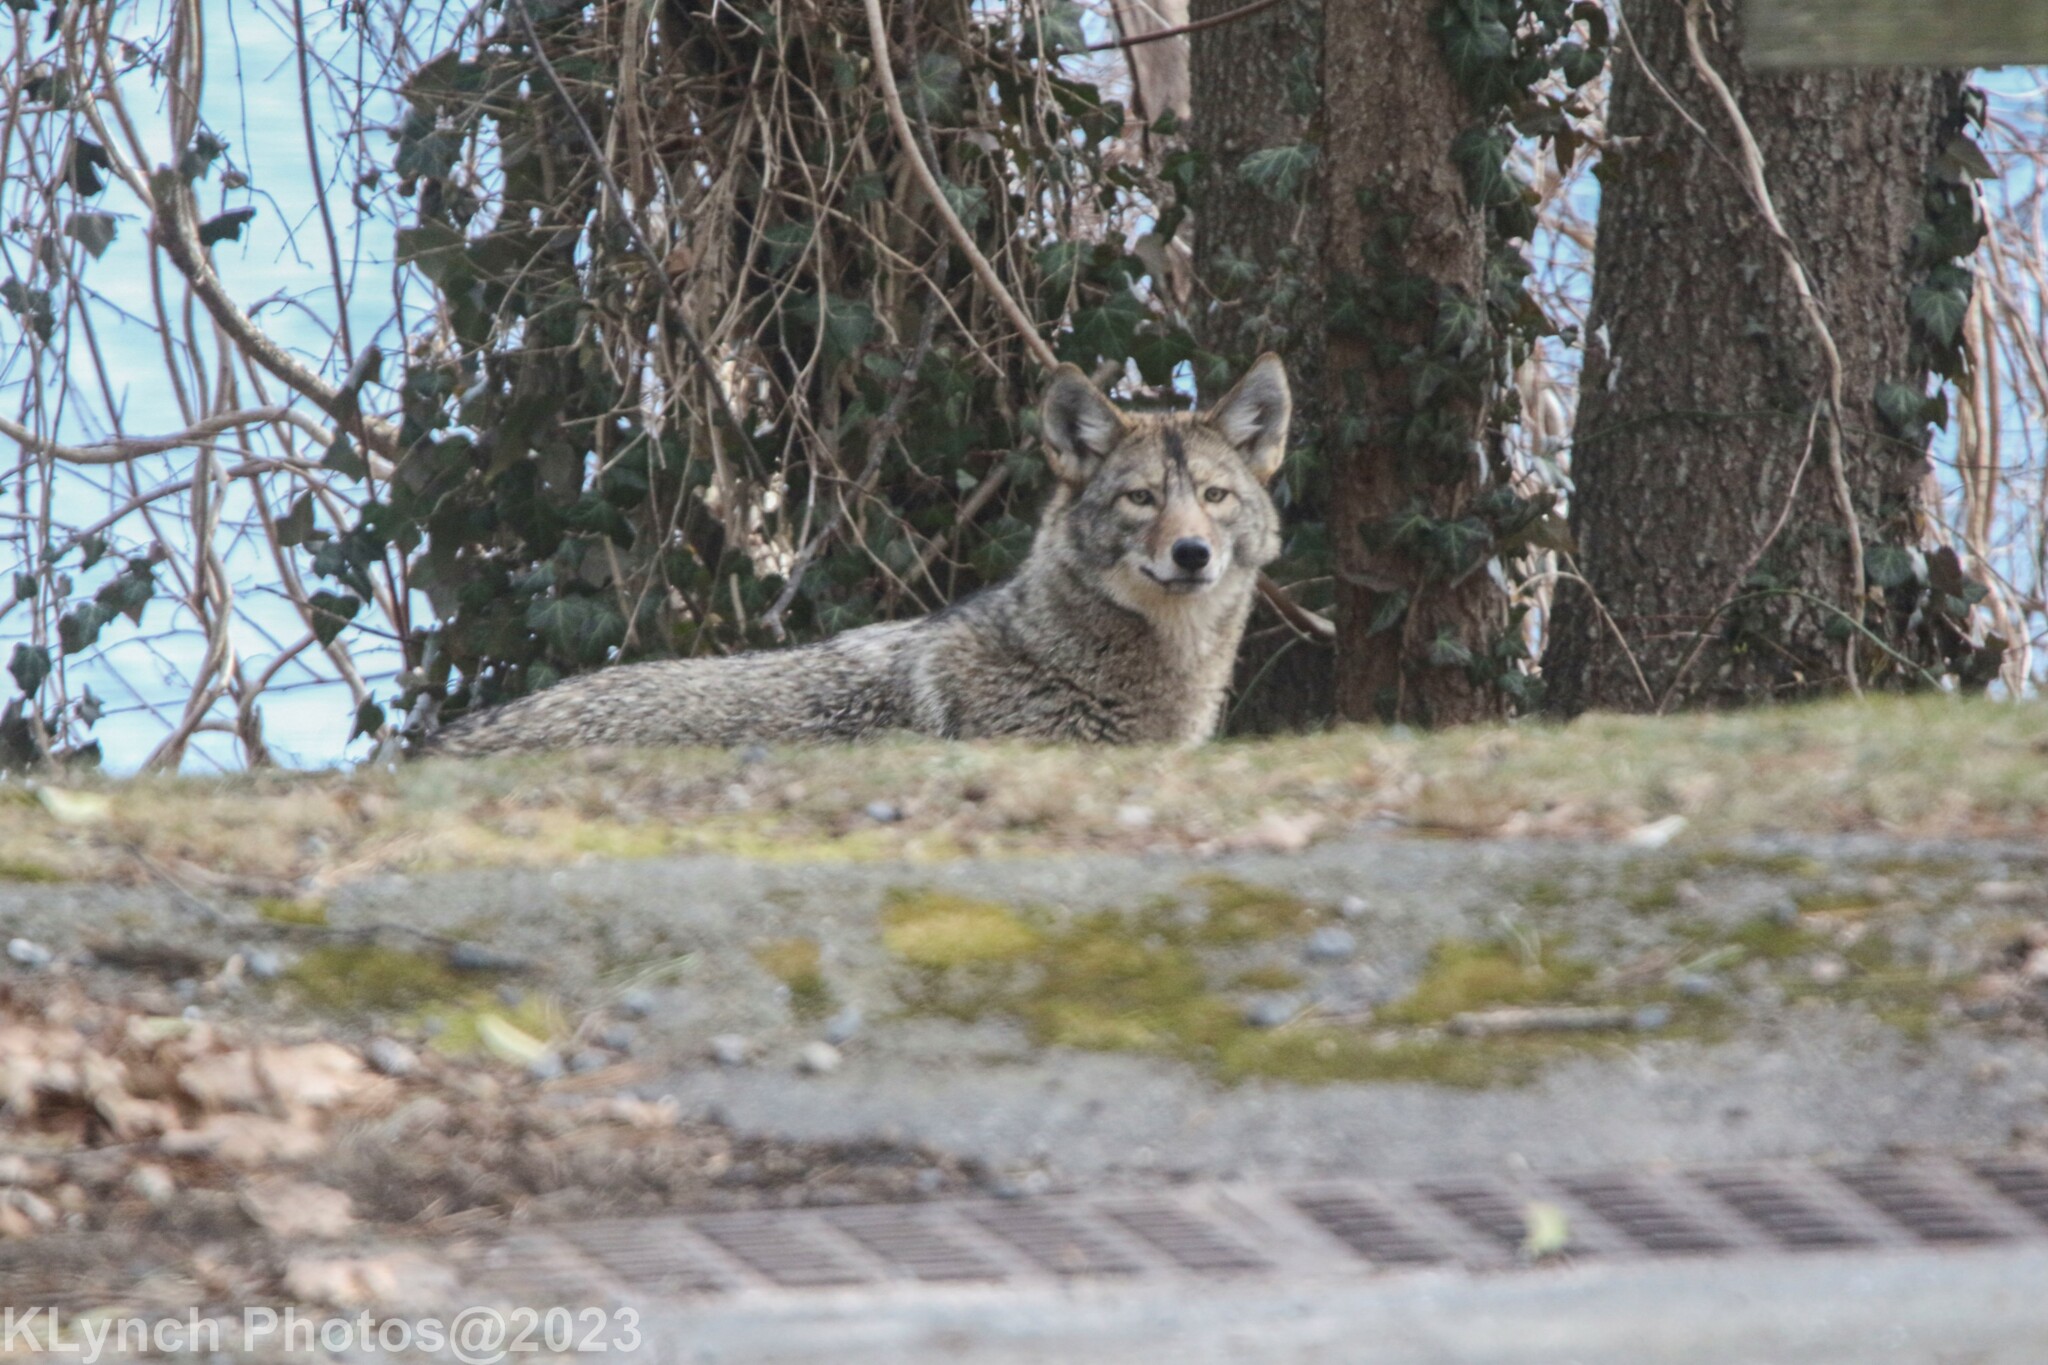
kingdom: Animalia
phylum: Chordata
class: Mammalia
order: Carnivora
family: Canidae
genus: Canis
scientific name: Canis latrans
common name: Coyote
